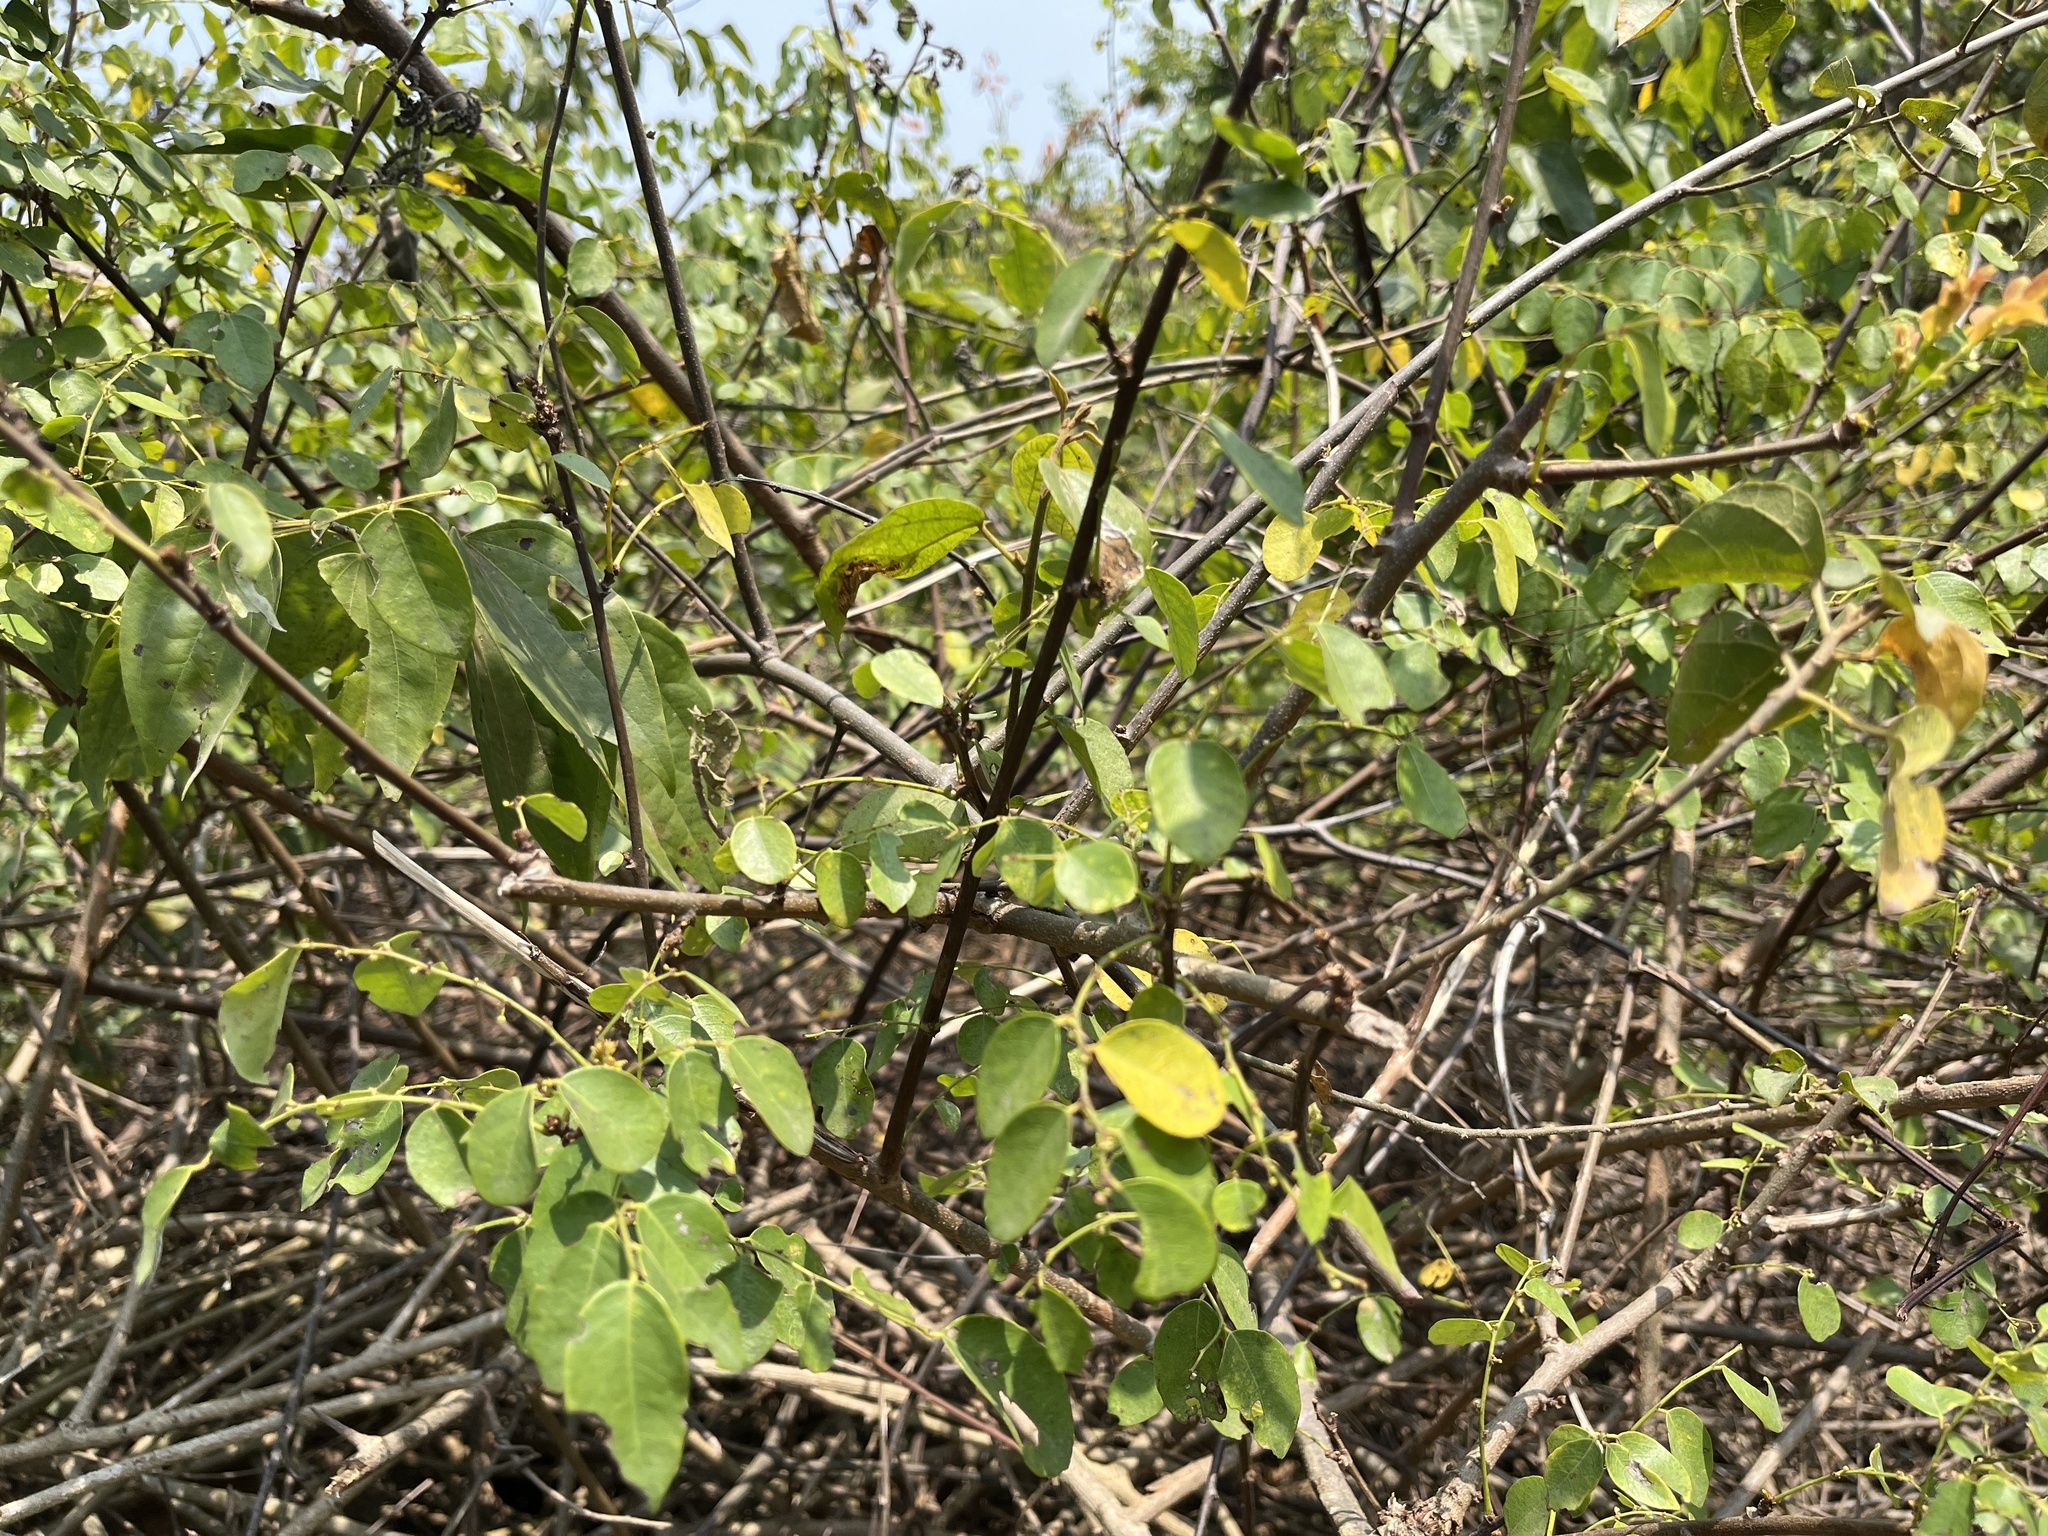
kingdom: Plantae
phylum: Tracheophyta
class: Magnoliopsida
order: Malpighiales
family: Phyllanthaceae
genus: Phyllanthus
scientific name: Phyllanthus reticulatus
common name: Potato bush
